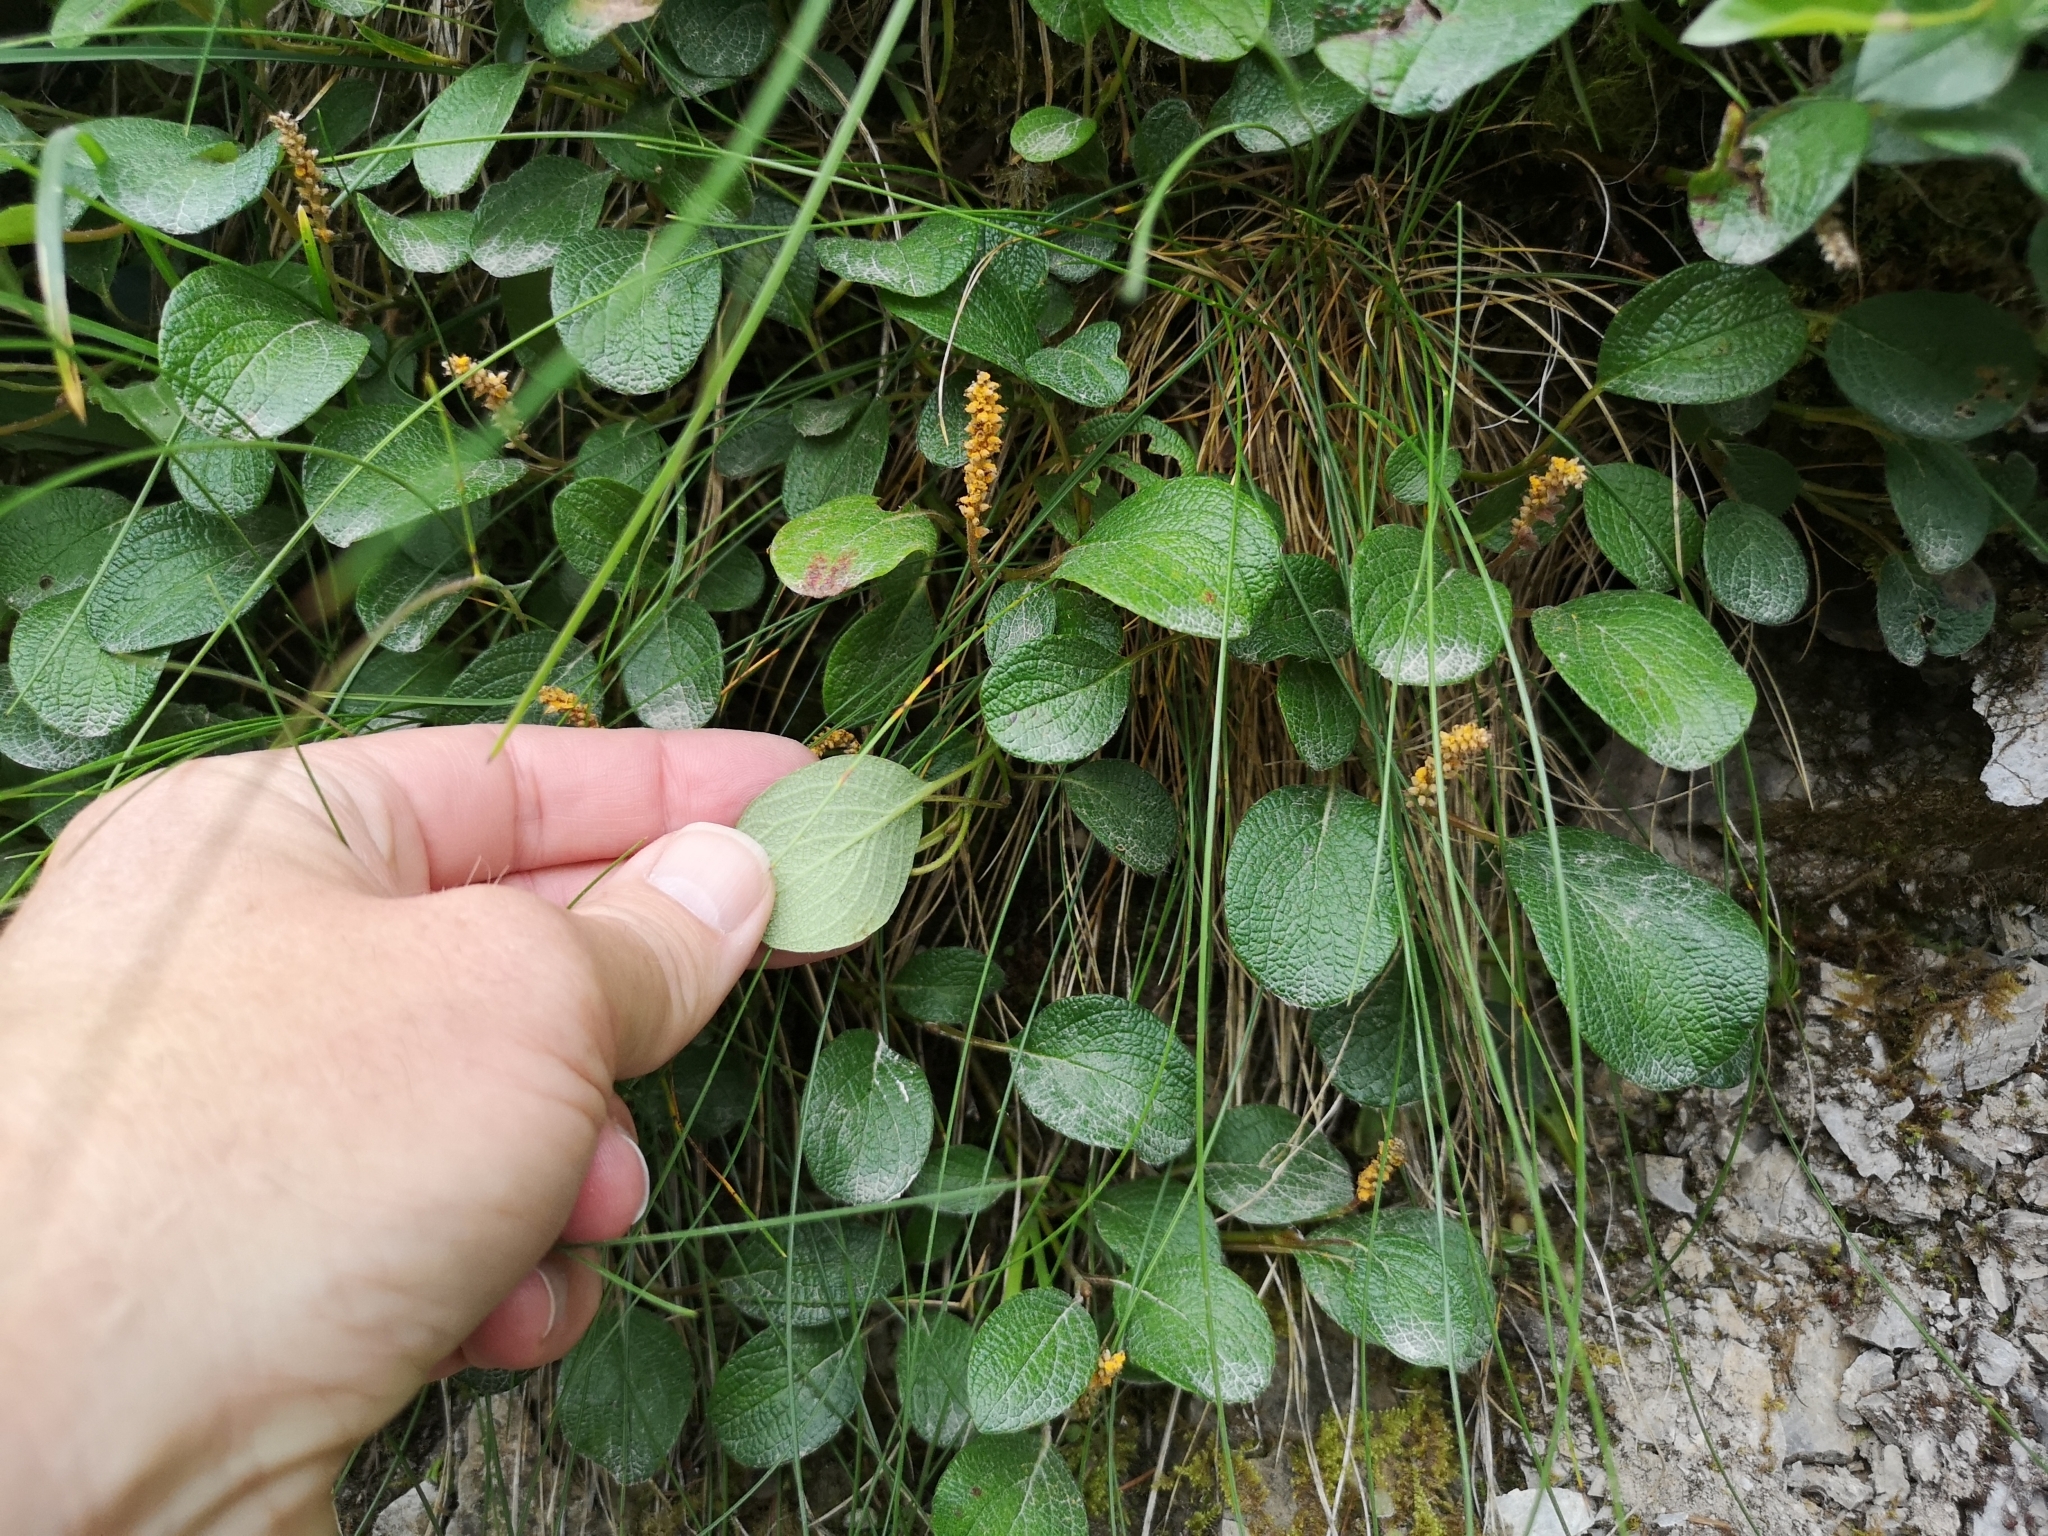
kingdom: Plantae
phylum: Tracheophyta
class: Magnoliopsida
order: Malpighiales
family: Salicaceae
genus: Salix
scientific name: Salix reticulata
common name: Net-leaved willow
